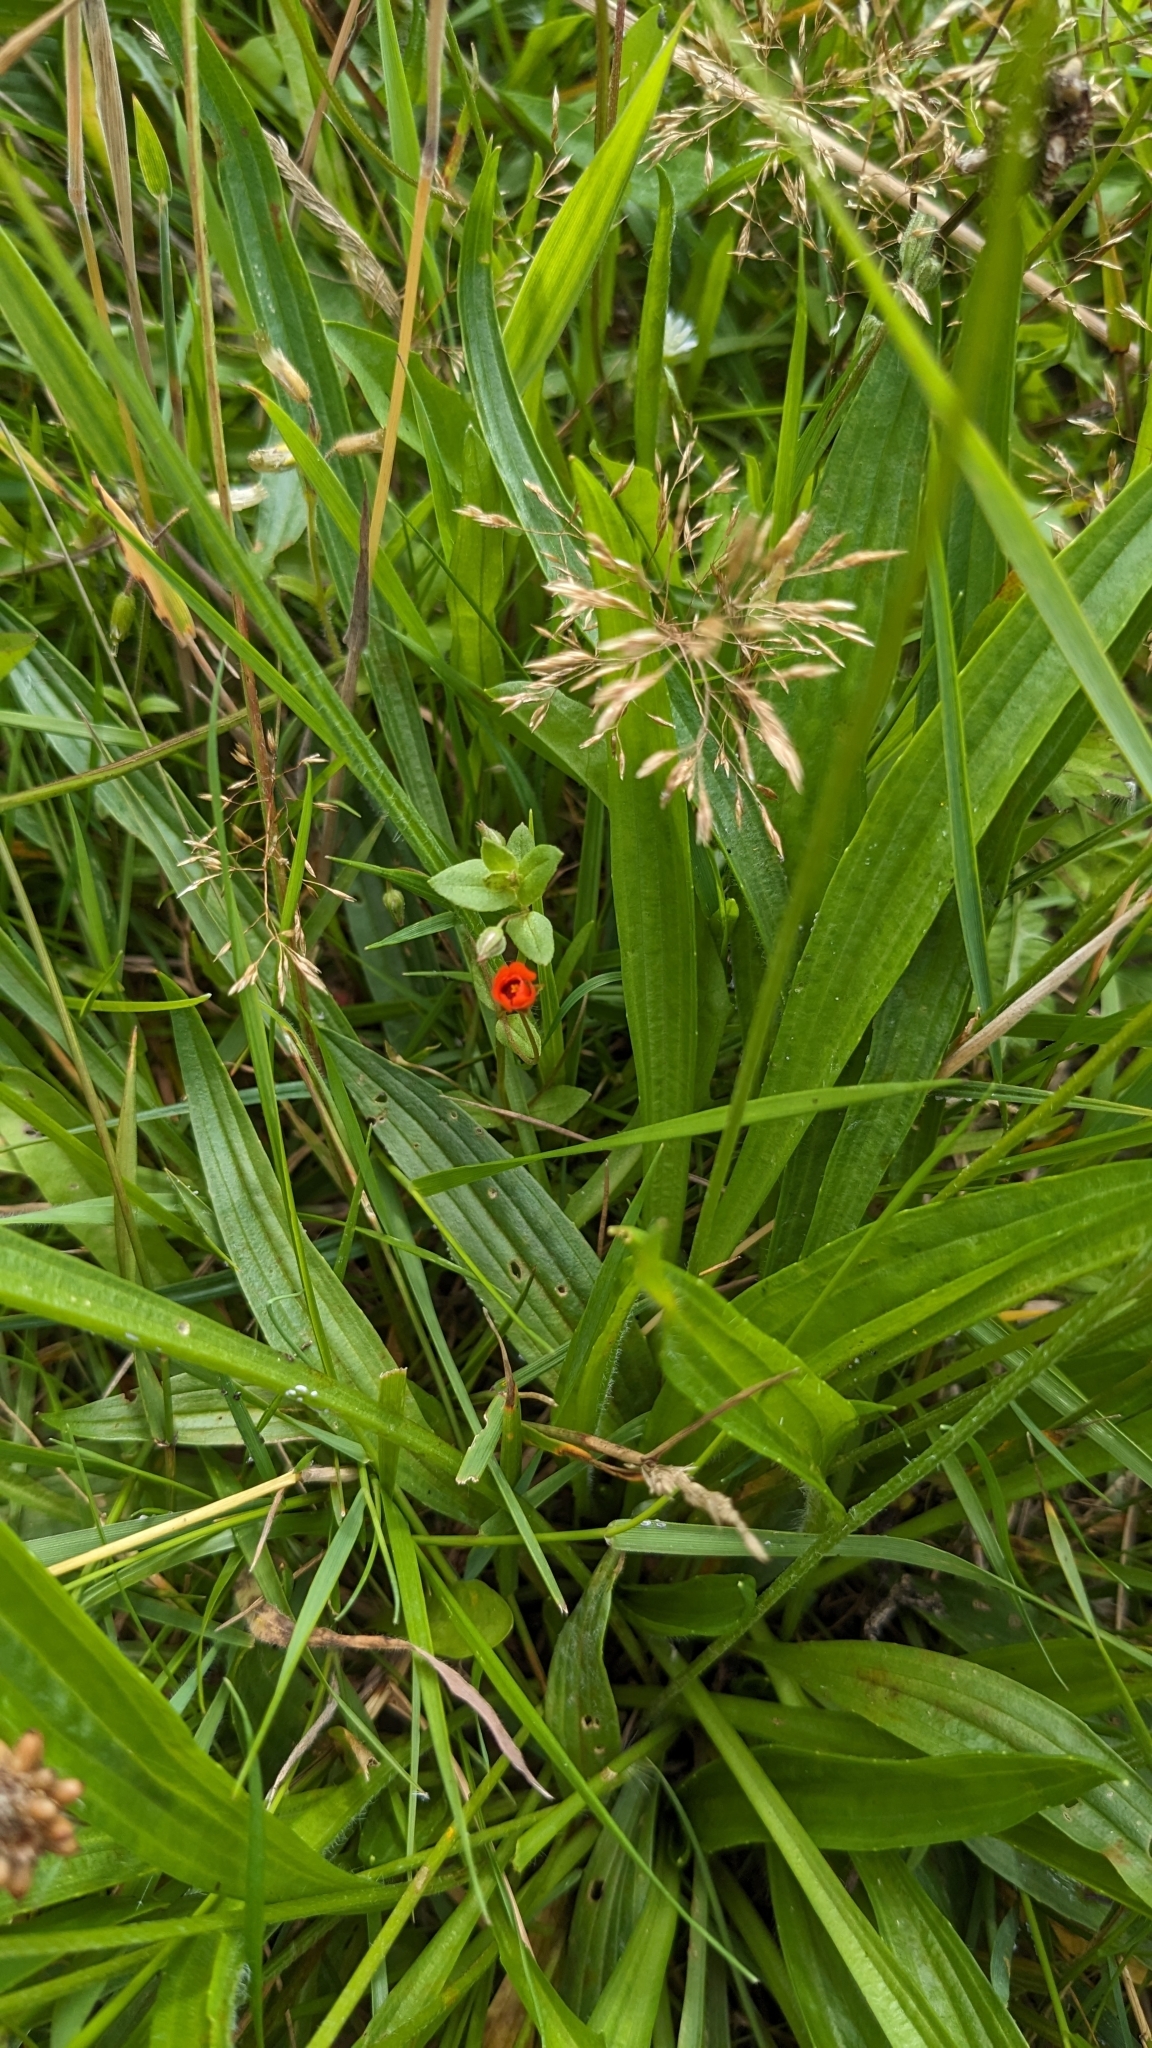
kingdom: Plantae
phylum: Tracheophyta
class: Magnoliopsida
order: Ericales
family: Primulaceae
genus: Lysimachia
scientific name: Lysimachia arvensis
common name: Scarlet pimpernel
